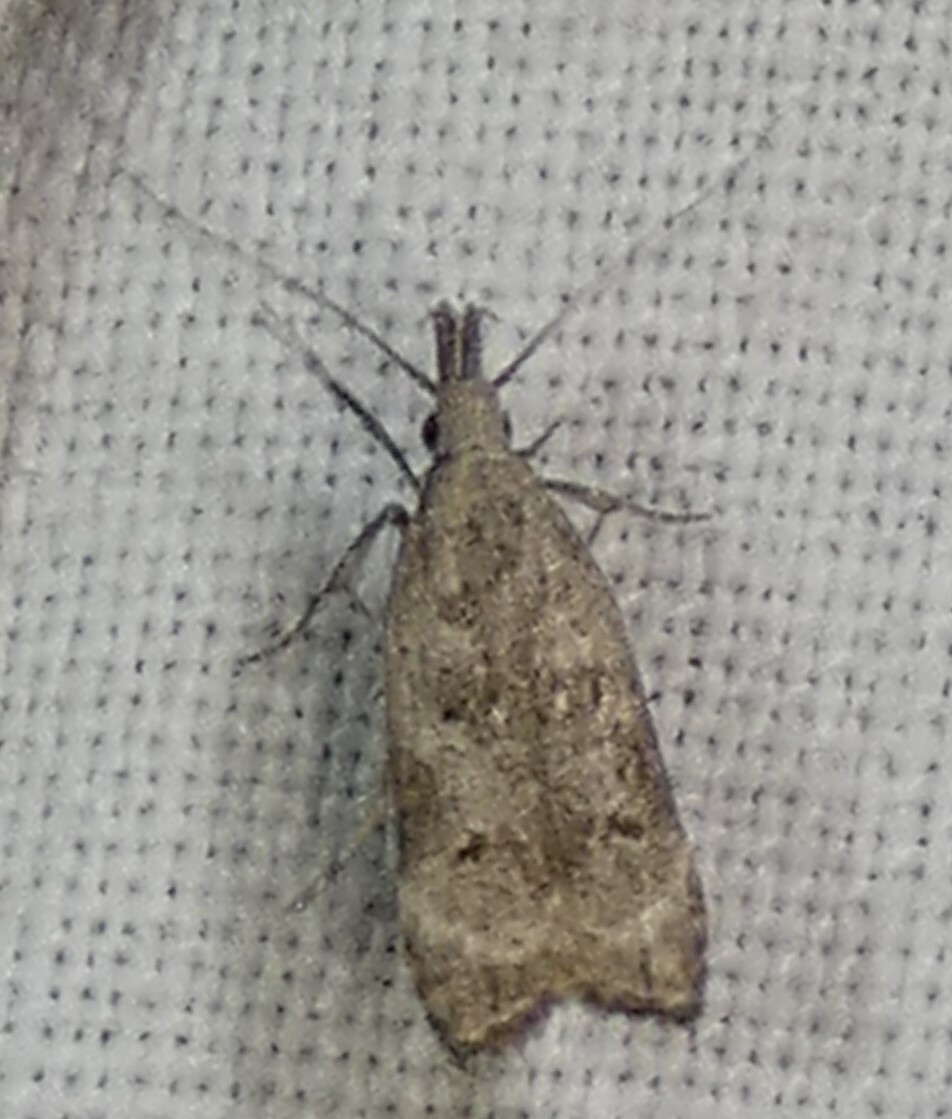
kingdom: Animalia
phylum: Arthropoda
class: Insecta
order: Lepidoptera
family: Gelechiidae
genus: Dichomeris
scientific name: Dichomeris kimballi
